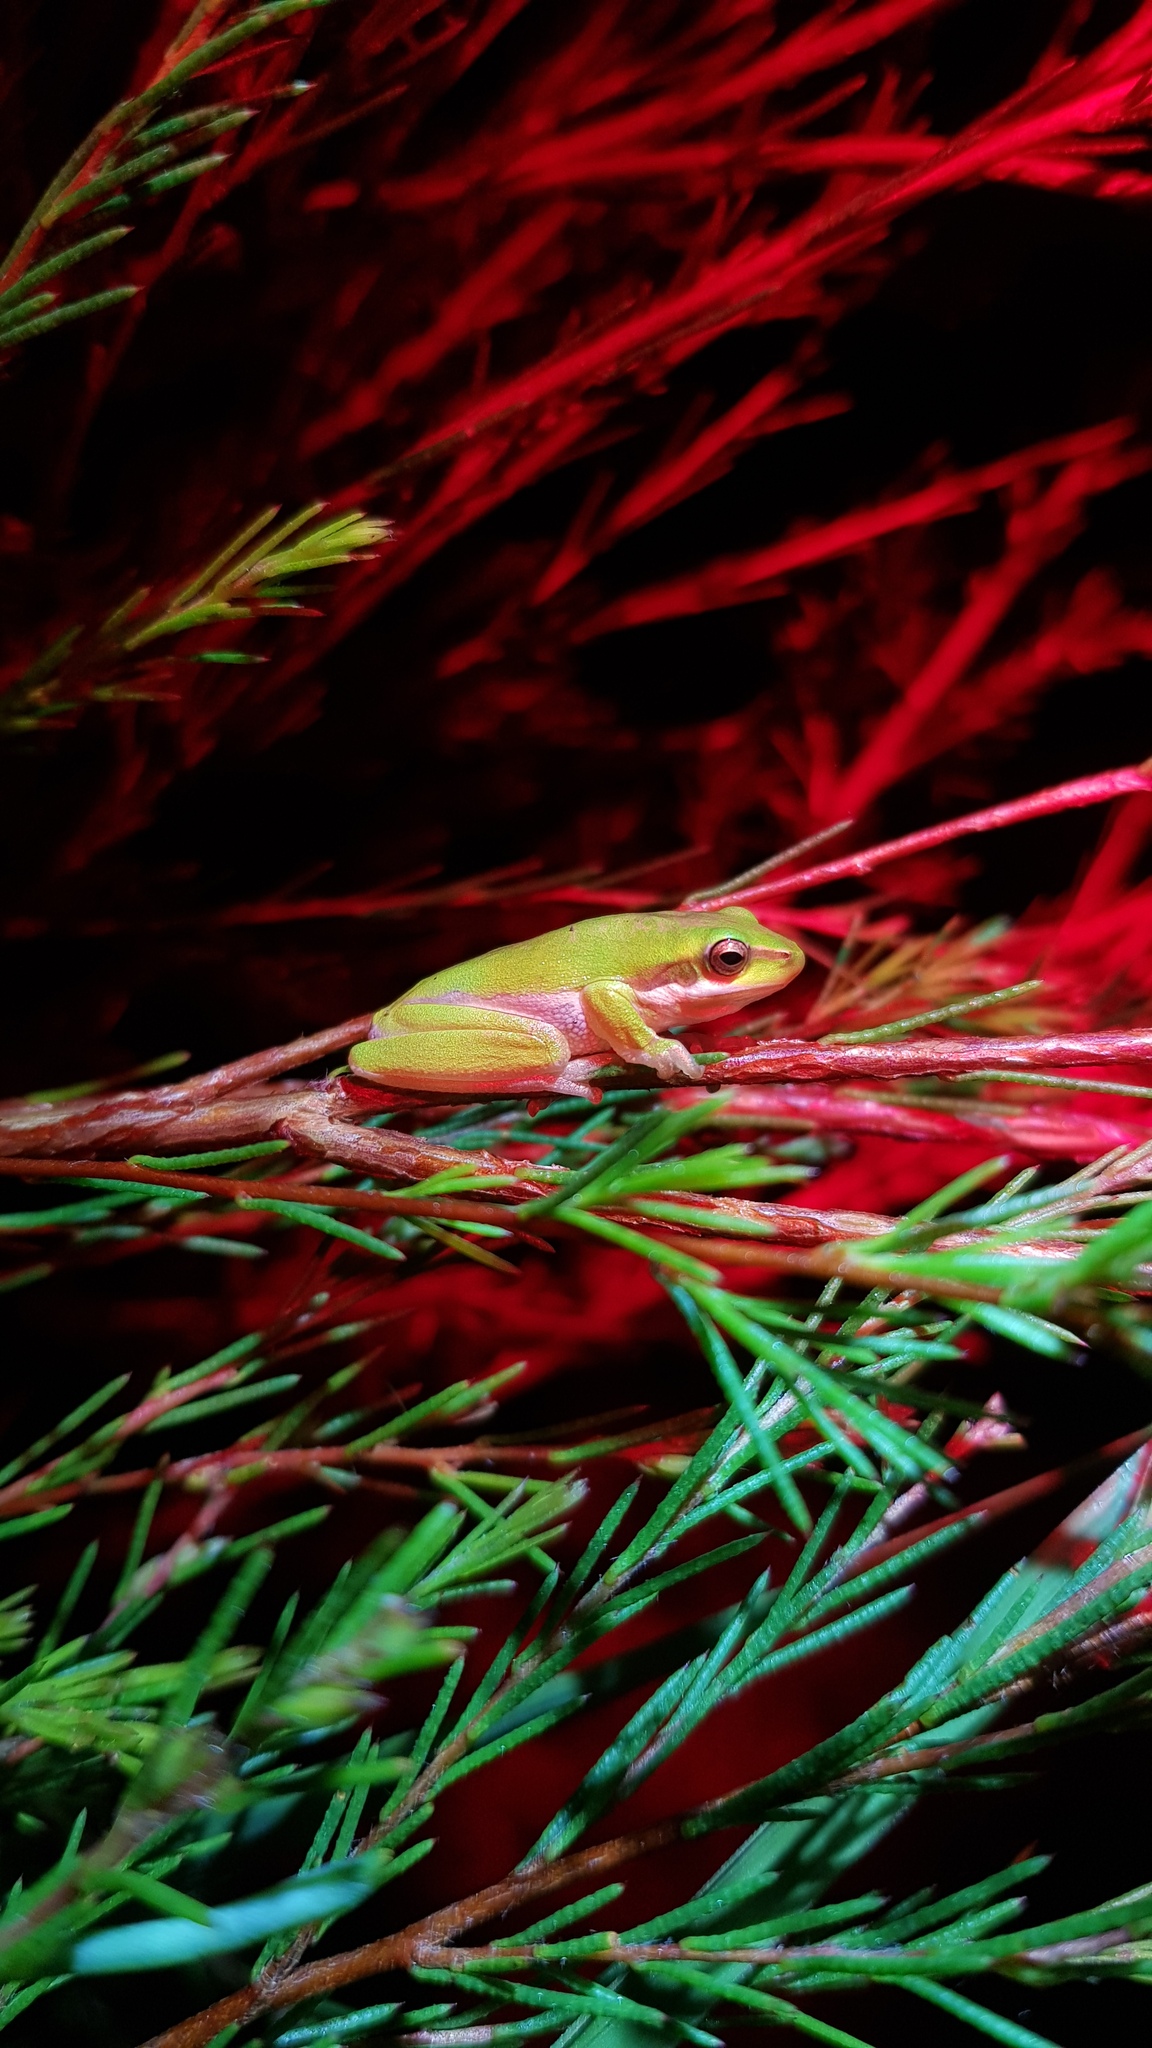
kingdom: Animalia
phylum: Chordata
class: Amphibia
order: Anura
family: Pelodryadidae
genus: Litoria
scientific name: Litoria fallax
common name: Eastern dwarf treefrog
